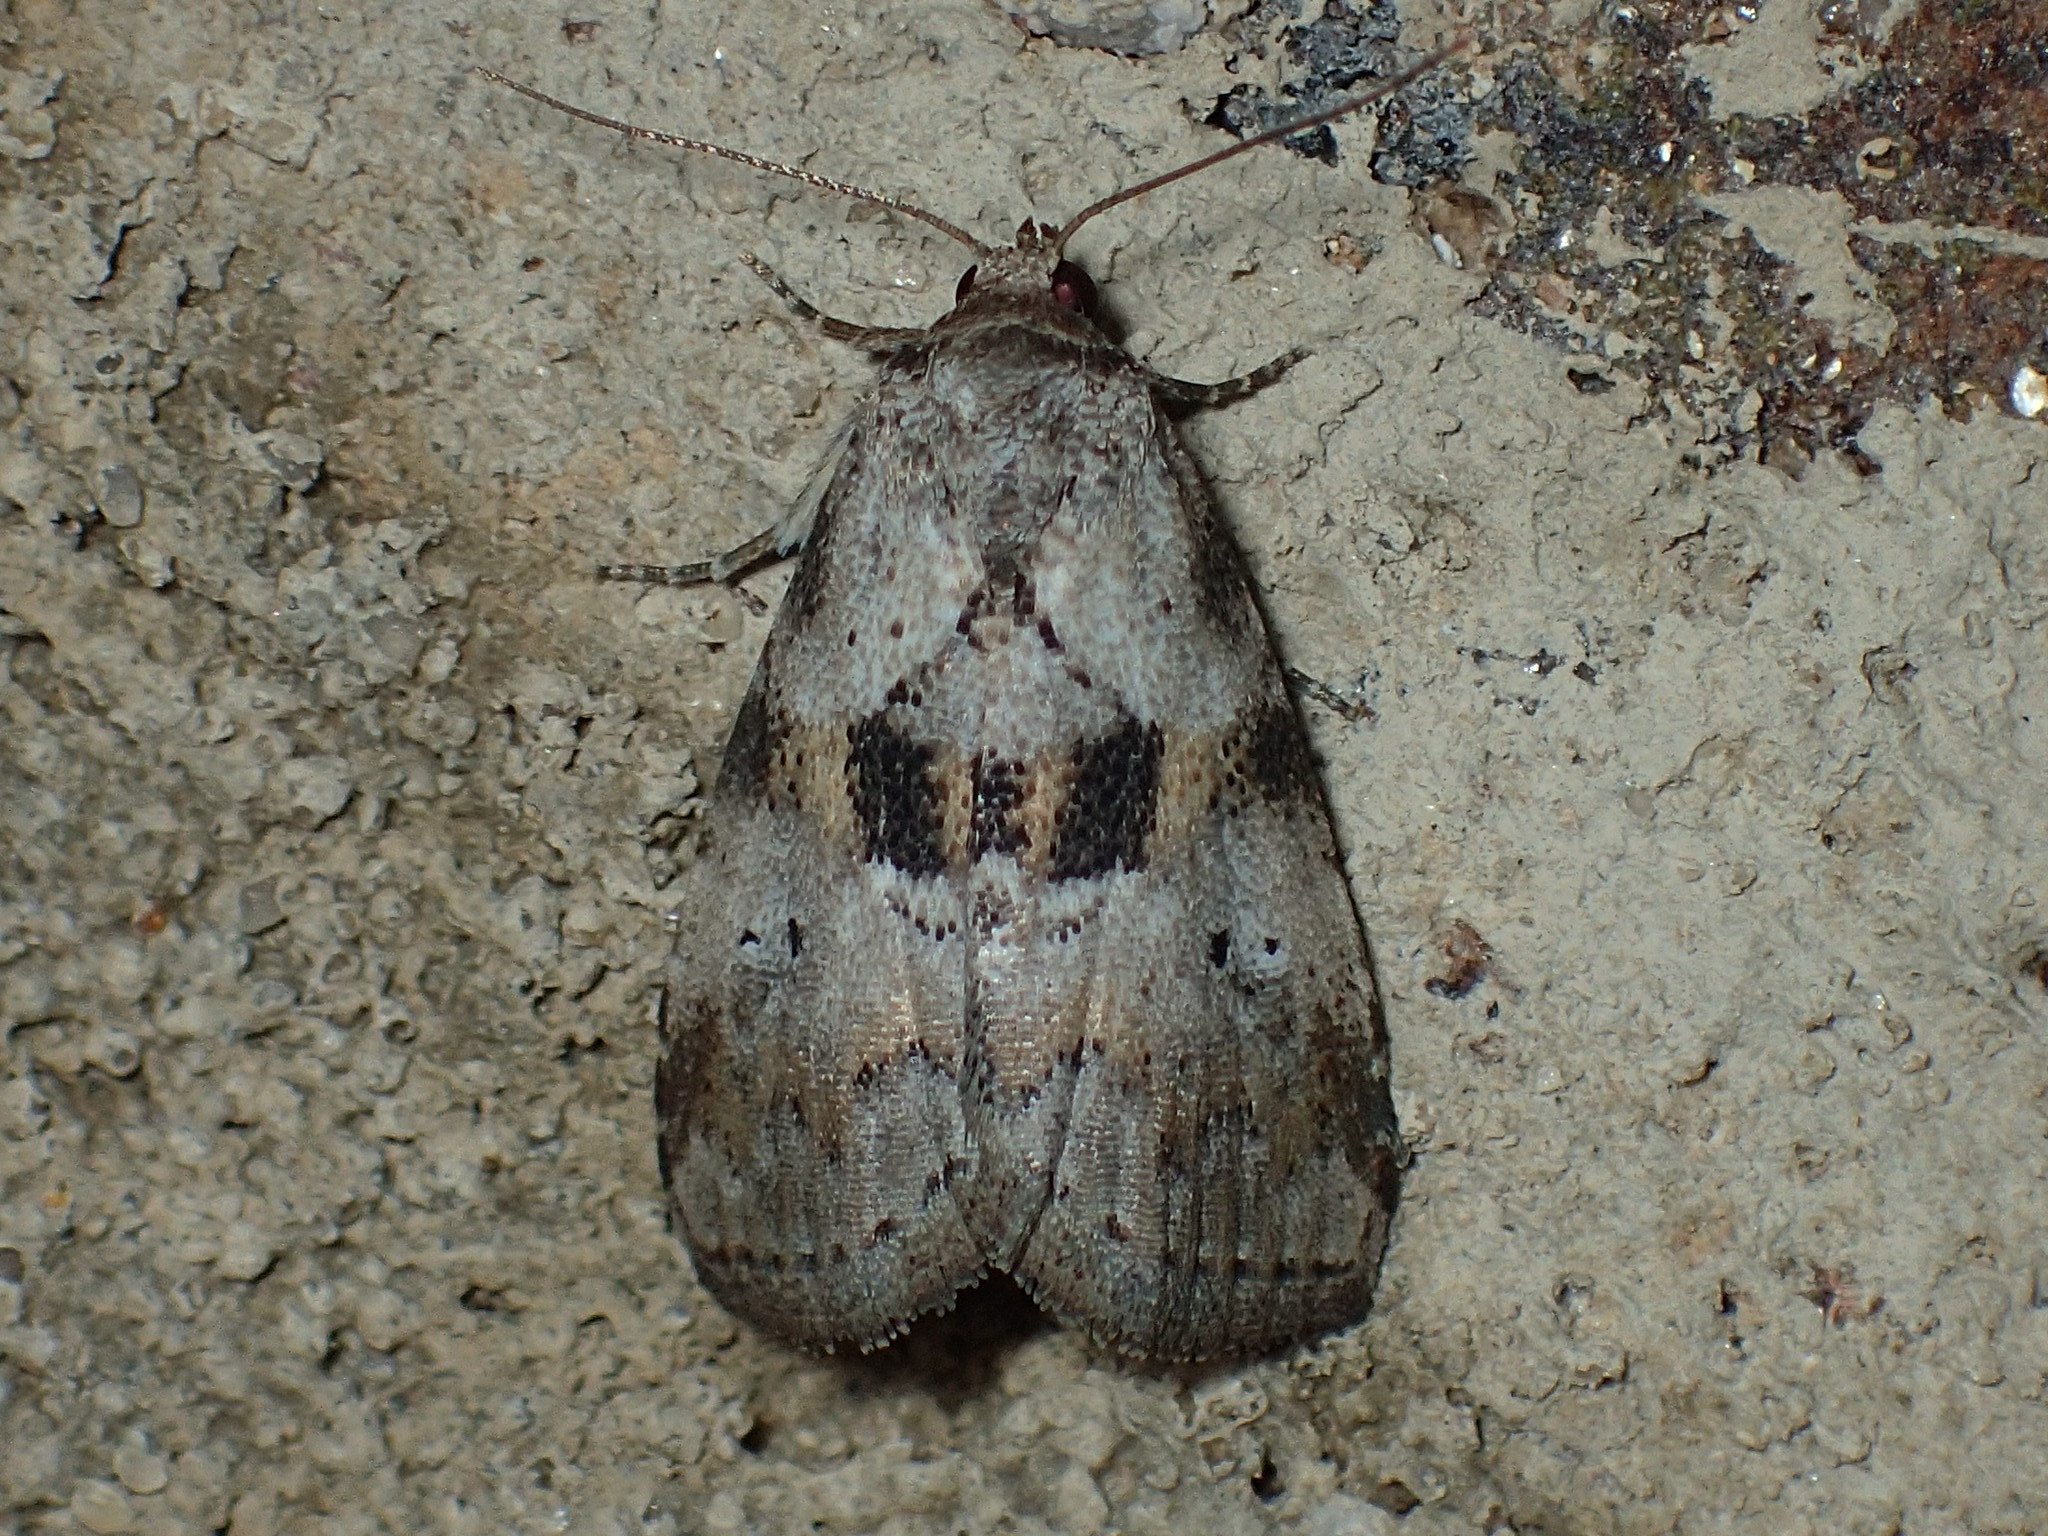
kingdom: Animalia
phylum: Arthropoda
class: Insecta
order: Lepidoptera
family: Erebidae
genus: Hyperstrotia
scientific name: Hyperstrotia secta
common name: Black-patched graylet
